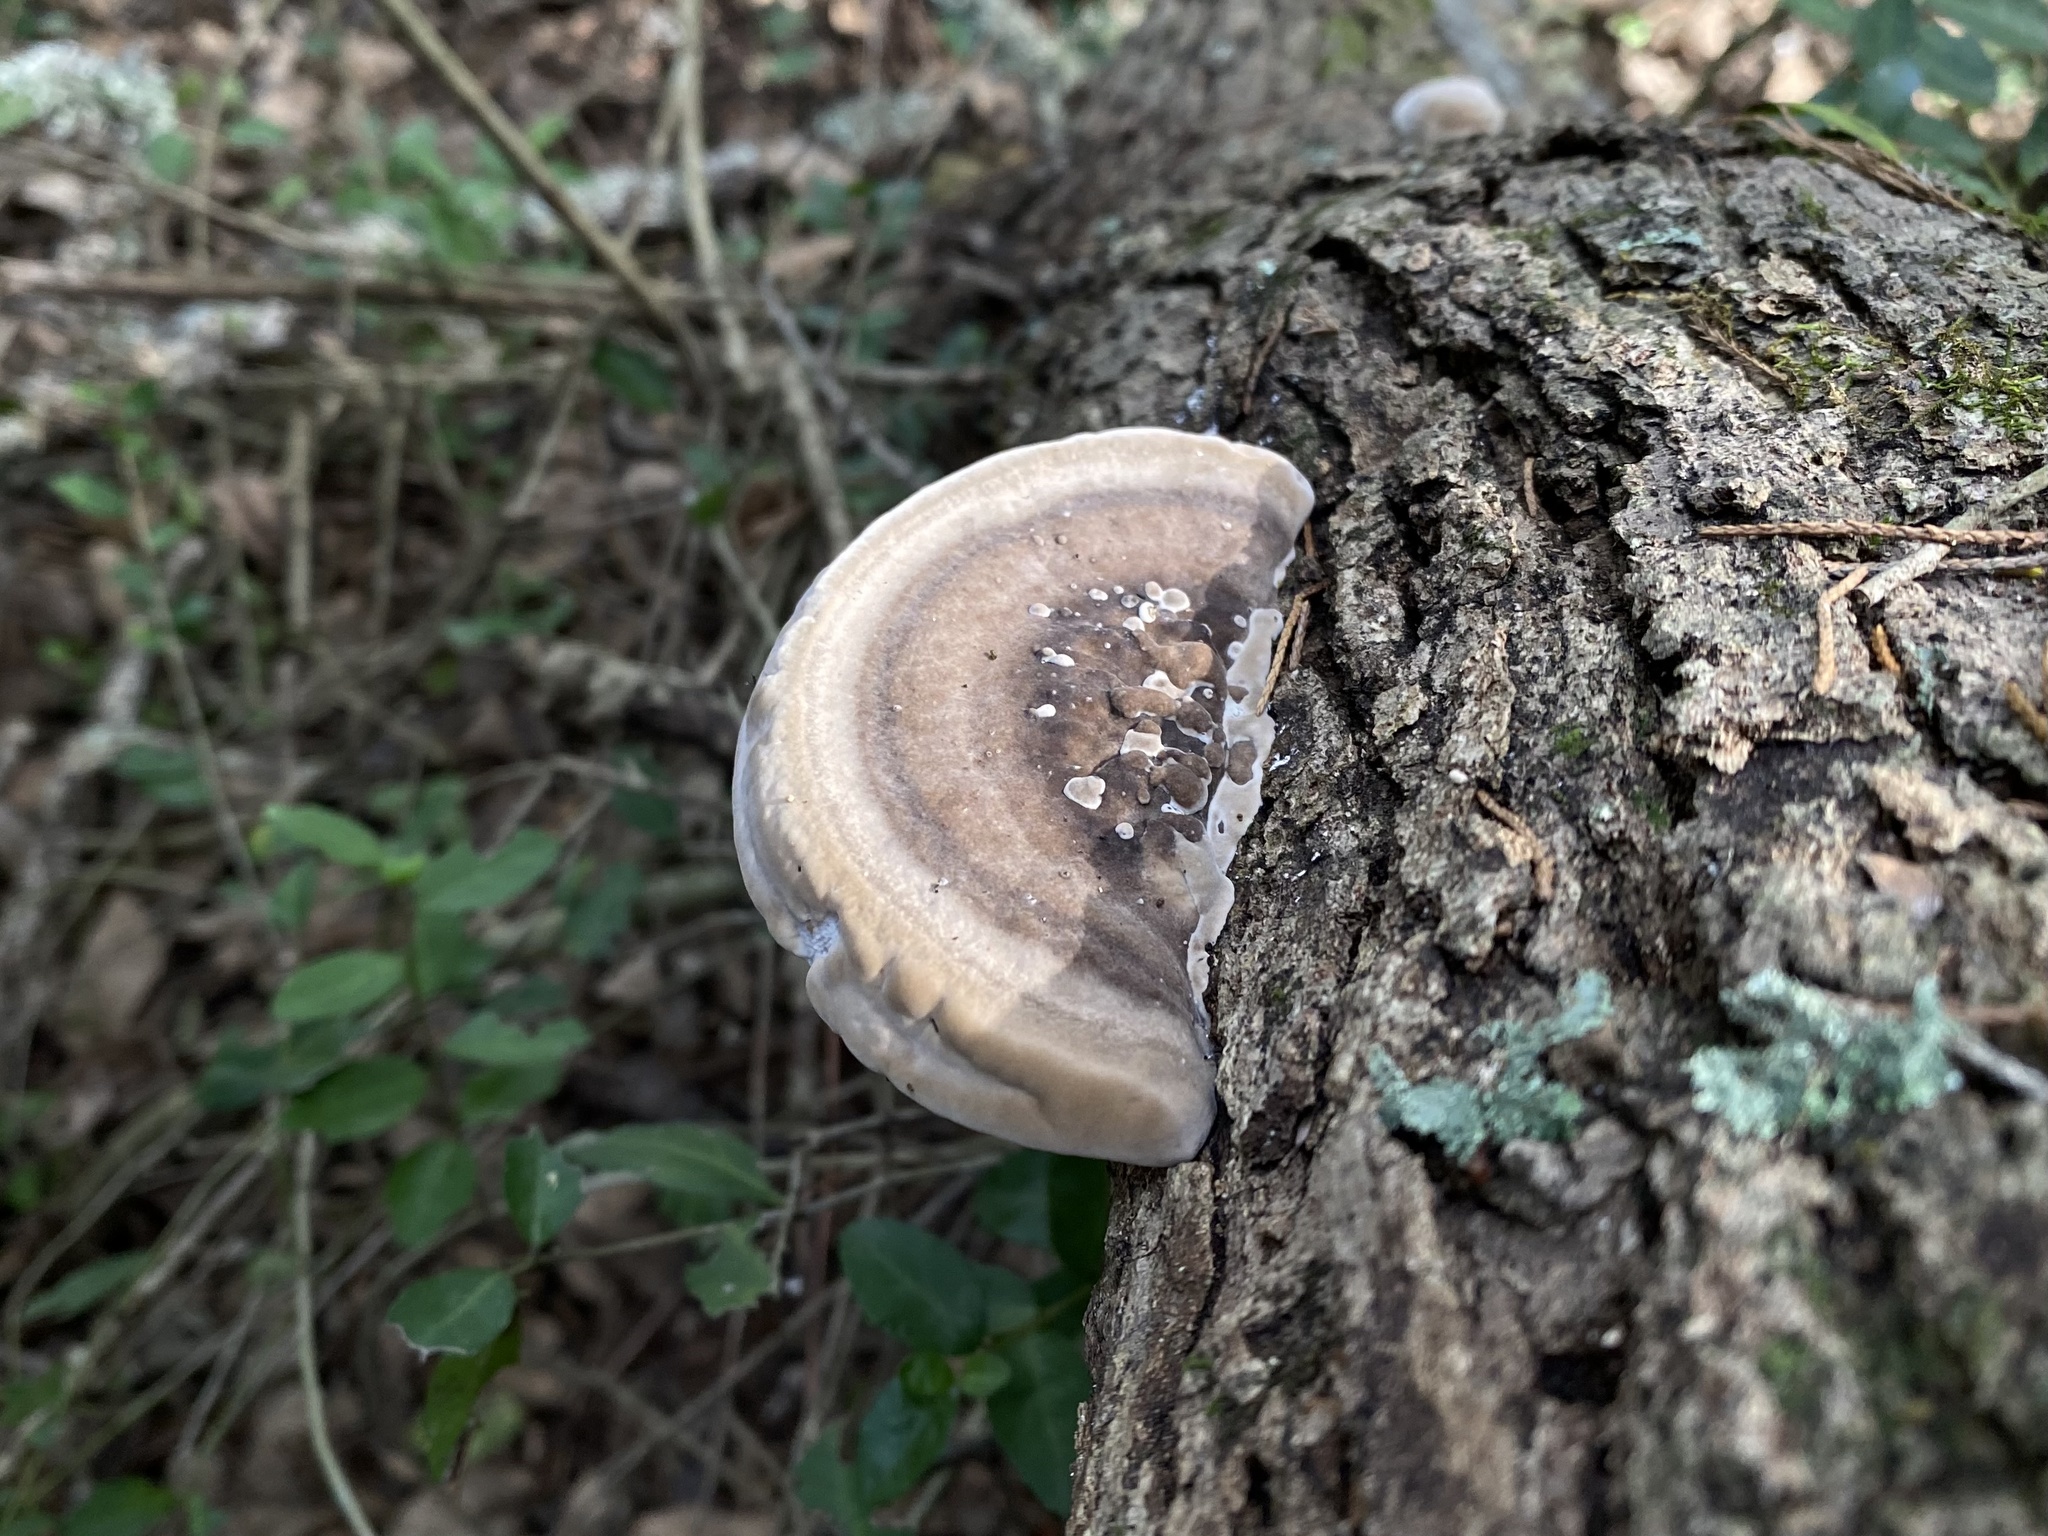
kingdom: Fungi
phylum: Basidiomycota
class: Agaricomycetes
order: Polyporales
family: Polyporaceae
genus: Trametes
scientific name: Trametes lactinea
